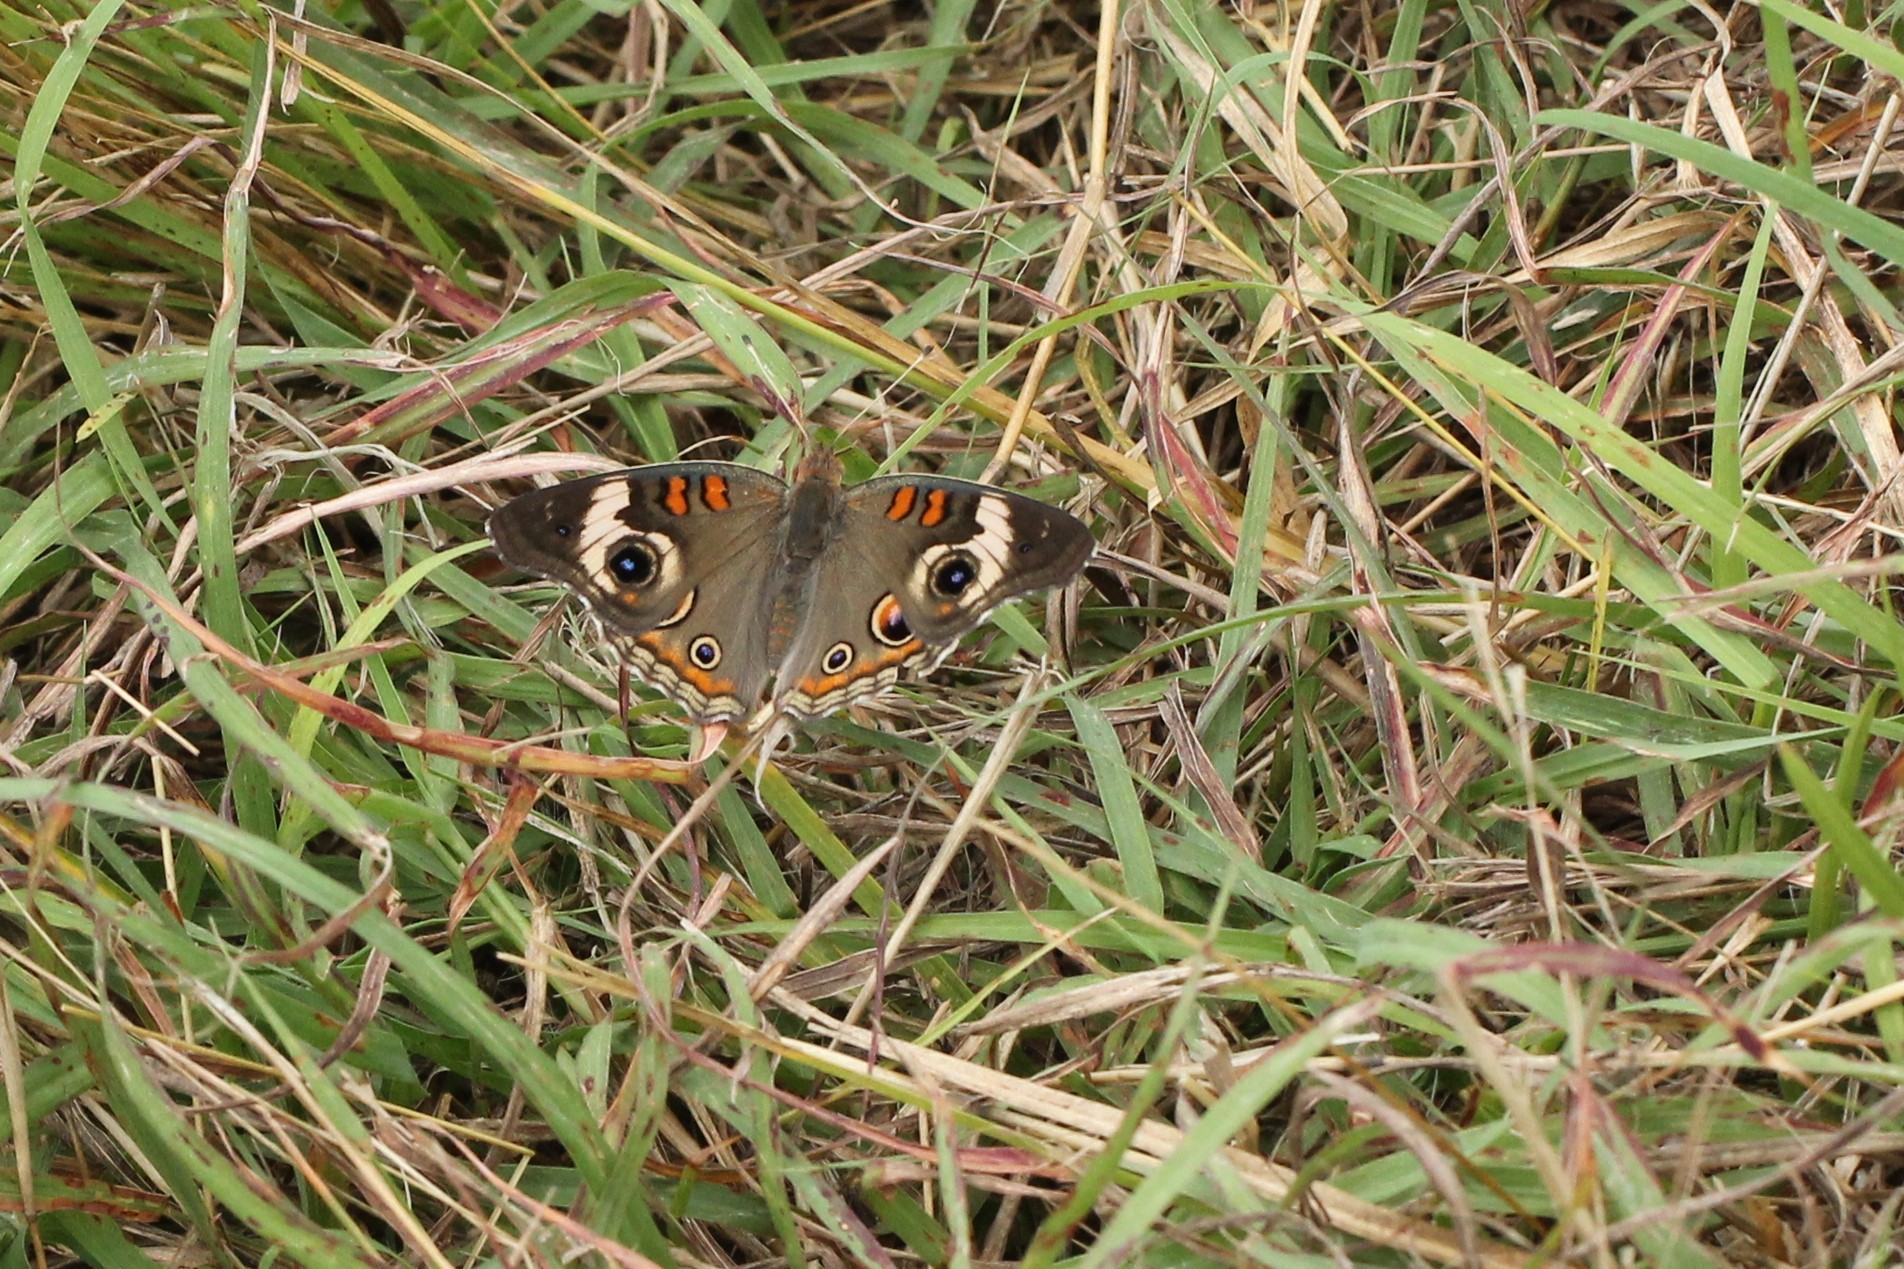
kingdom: Animalia
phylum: Arthropoda
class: Insecta
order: Lepidoptera
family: Nymphalidae
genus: Junonia
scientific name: Junonia coenia
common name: Common buckeye
